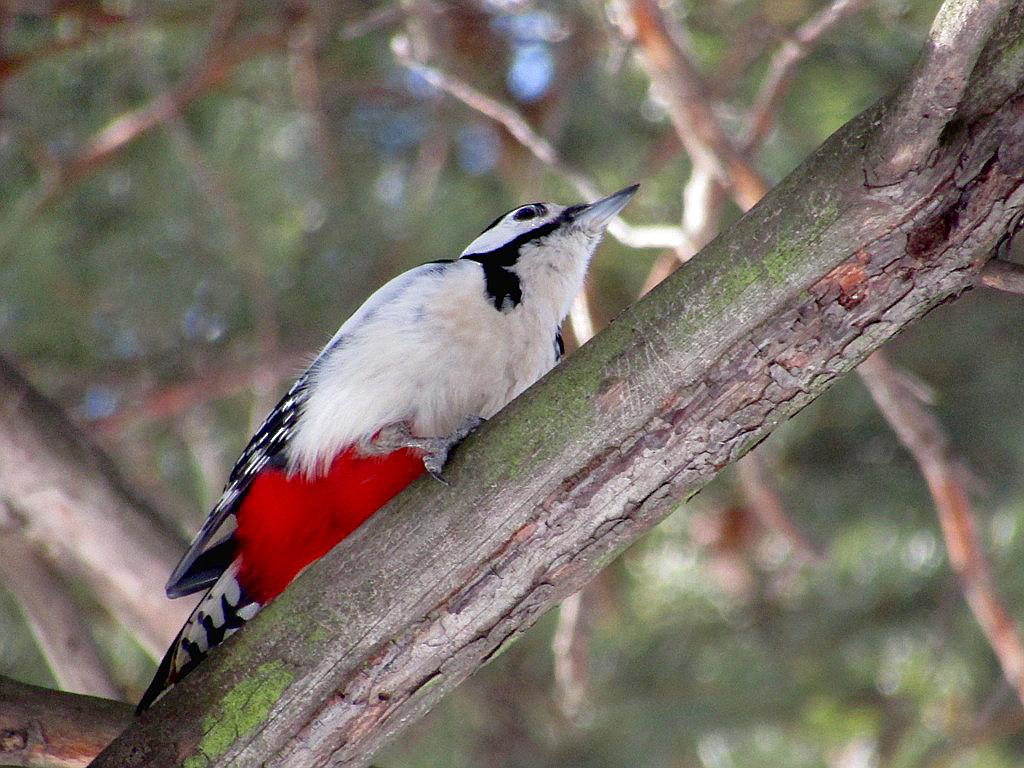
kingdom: Animalia
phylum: Chordata
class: Aves
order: Piciformes
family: Picidae
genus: Dendrocopos
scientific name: Dendrocopos major
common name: Great spotted woodpecker
